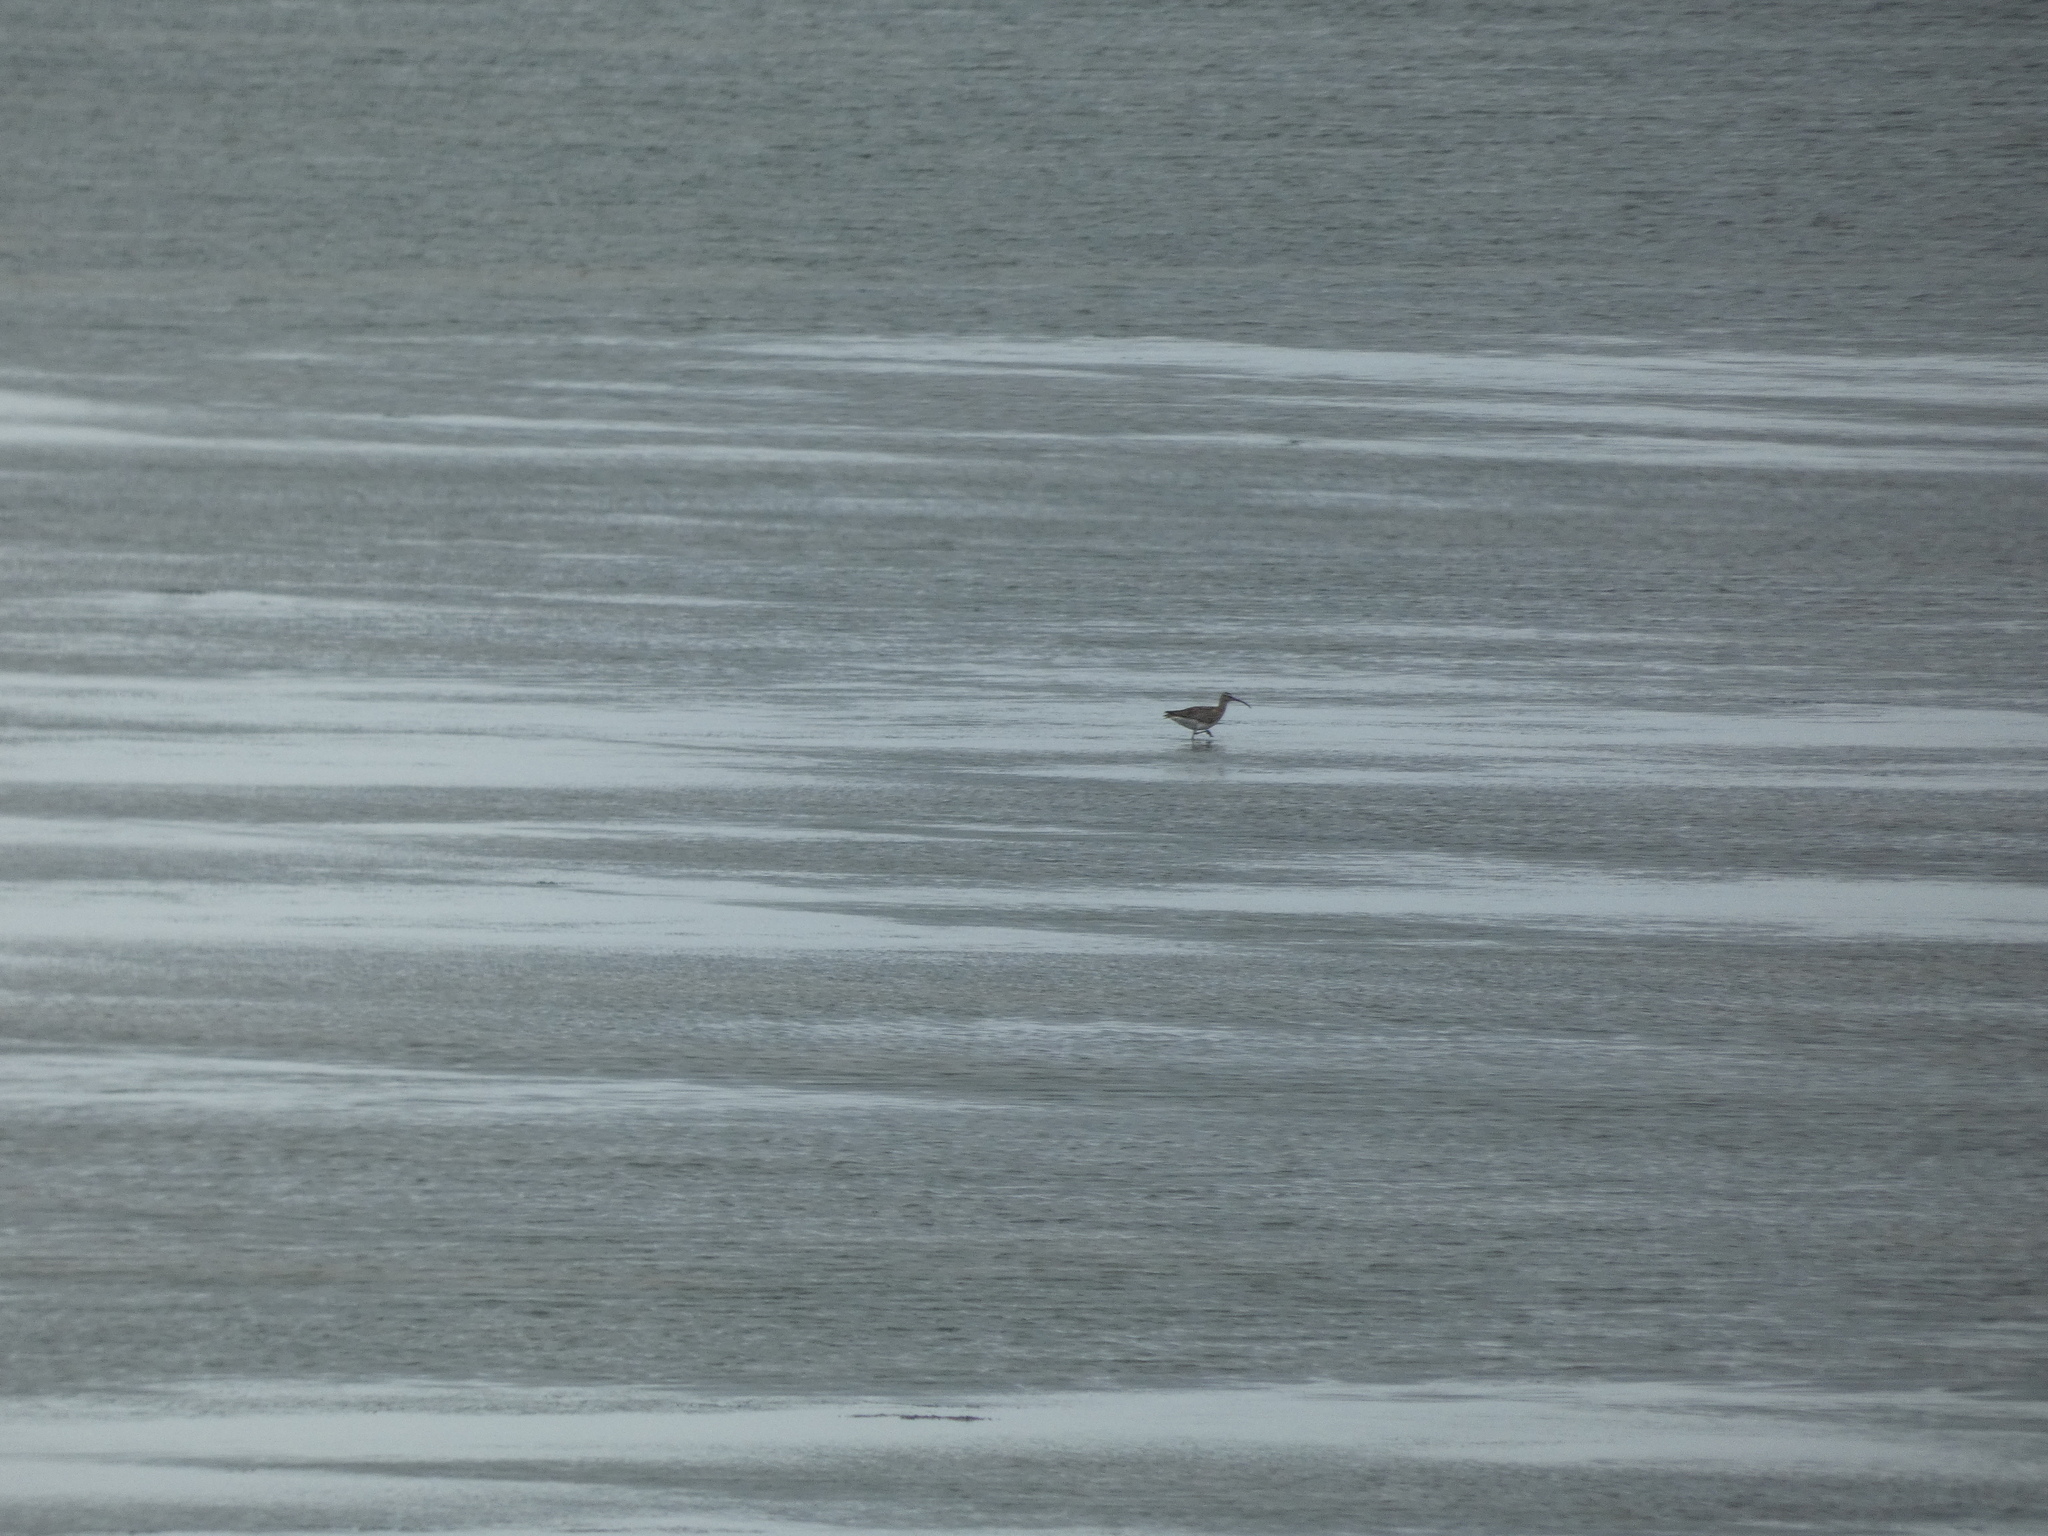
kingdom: Animalia
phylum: Chordata
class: Aves
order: Charadriiformes
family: Scolopacidae
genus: Numenius
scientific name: Numenius phaeopus
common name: Whimbrel
